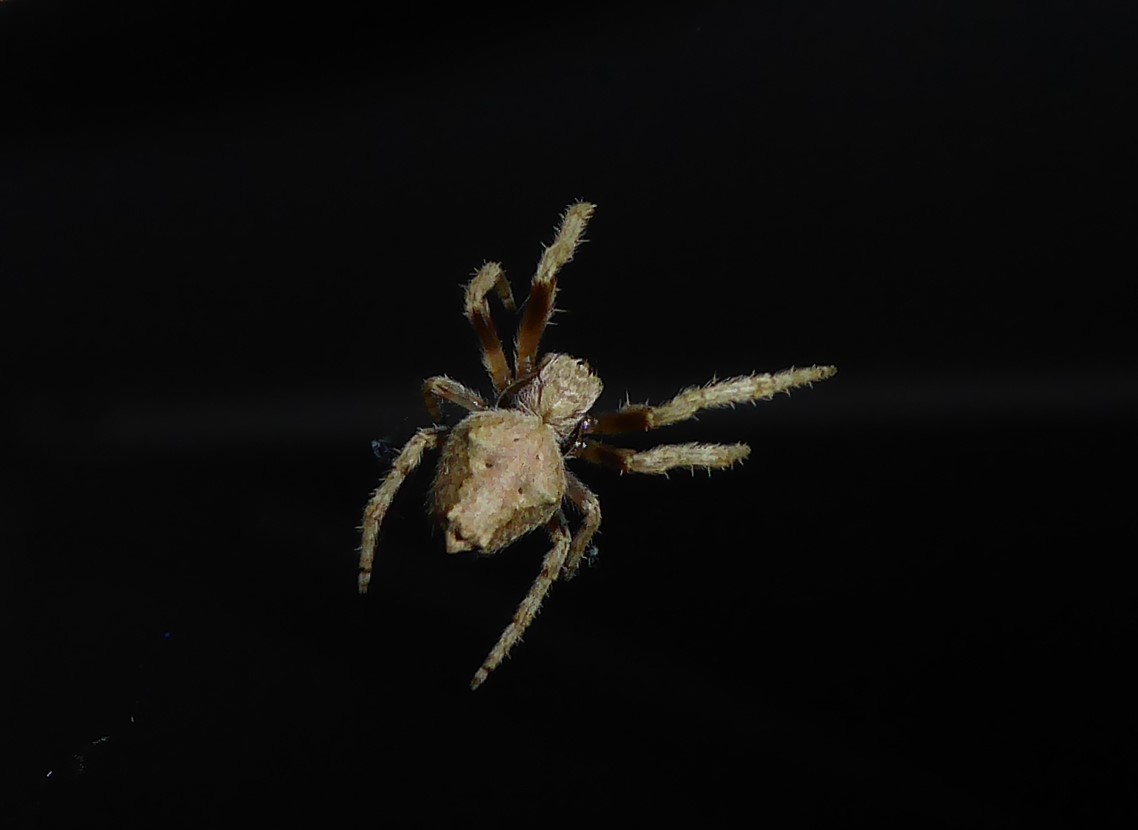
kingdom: Animalia
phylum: Arthropoda
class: Arachnida
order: Araneae
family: Araneidae
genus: Eriophora
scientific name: Eriophora pustulosa
